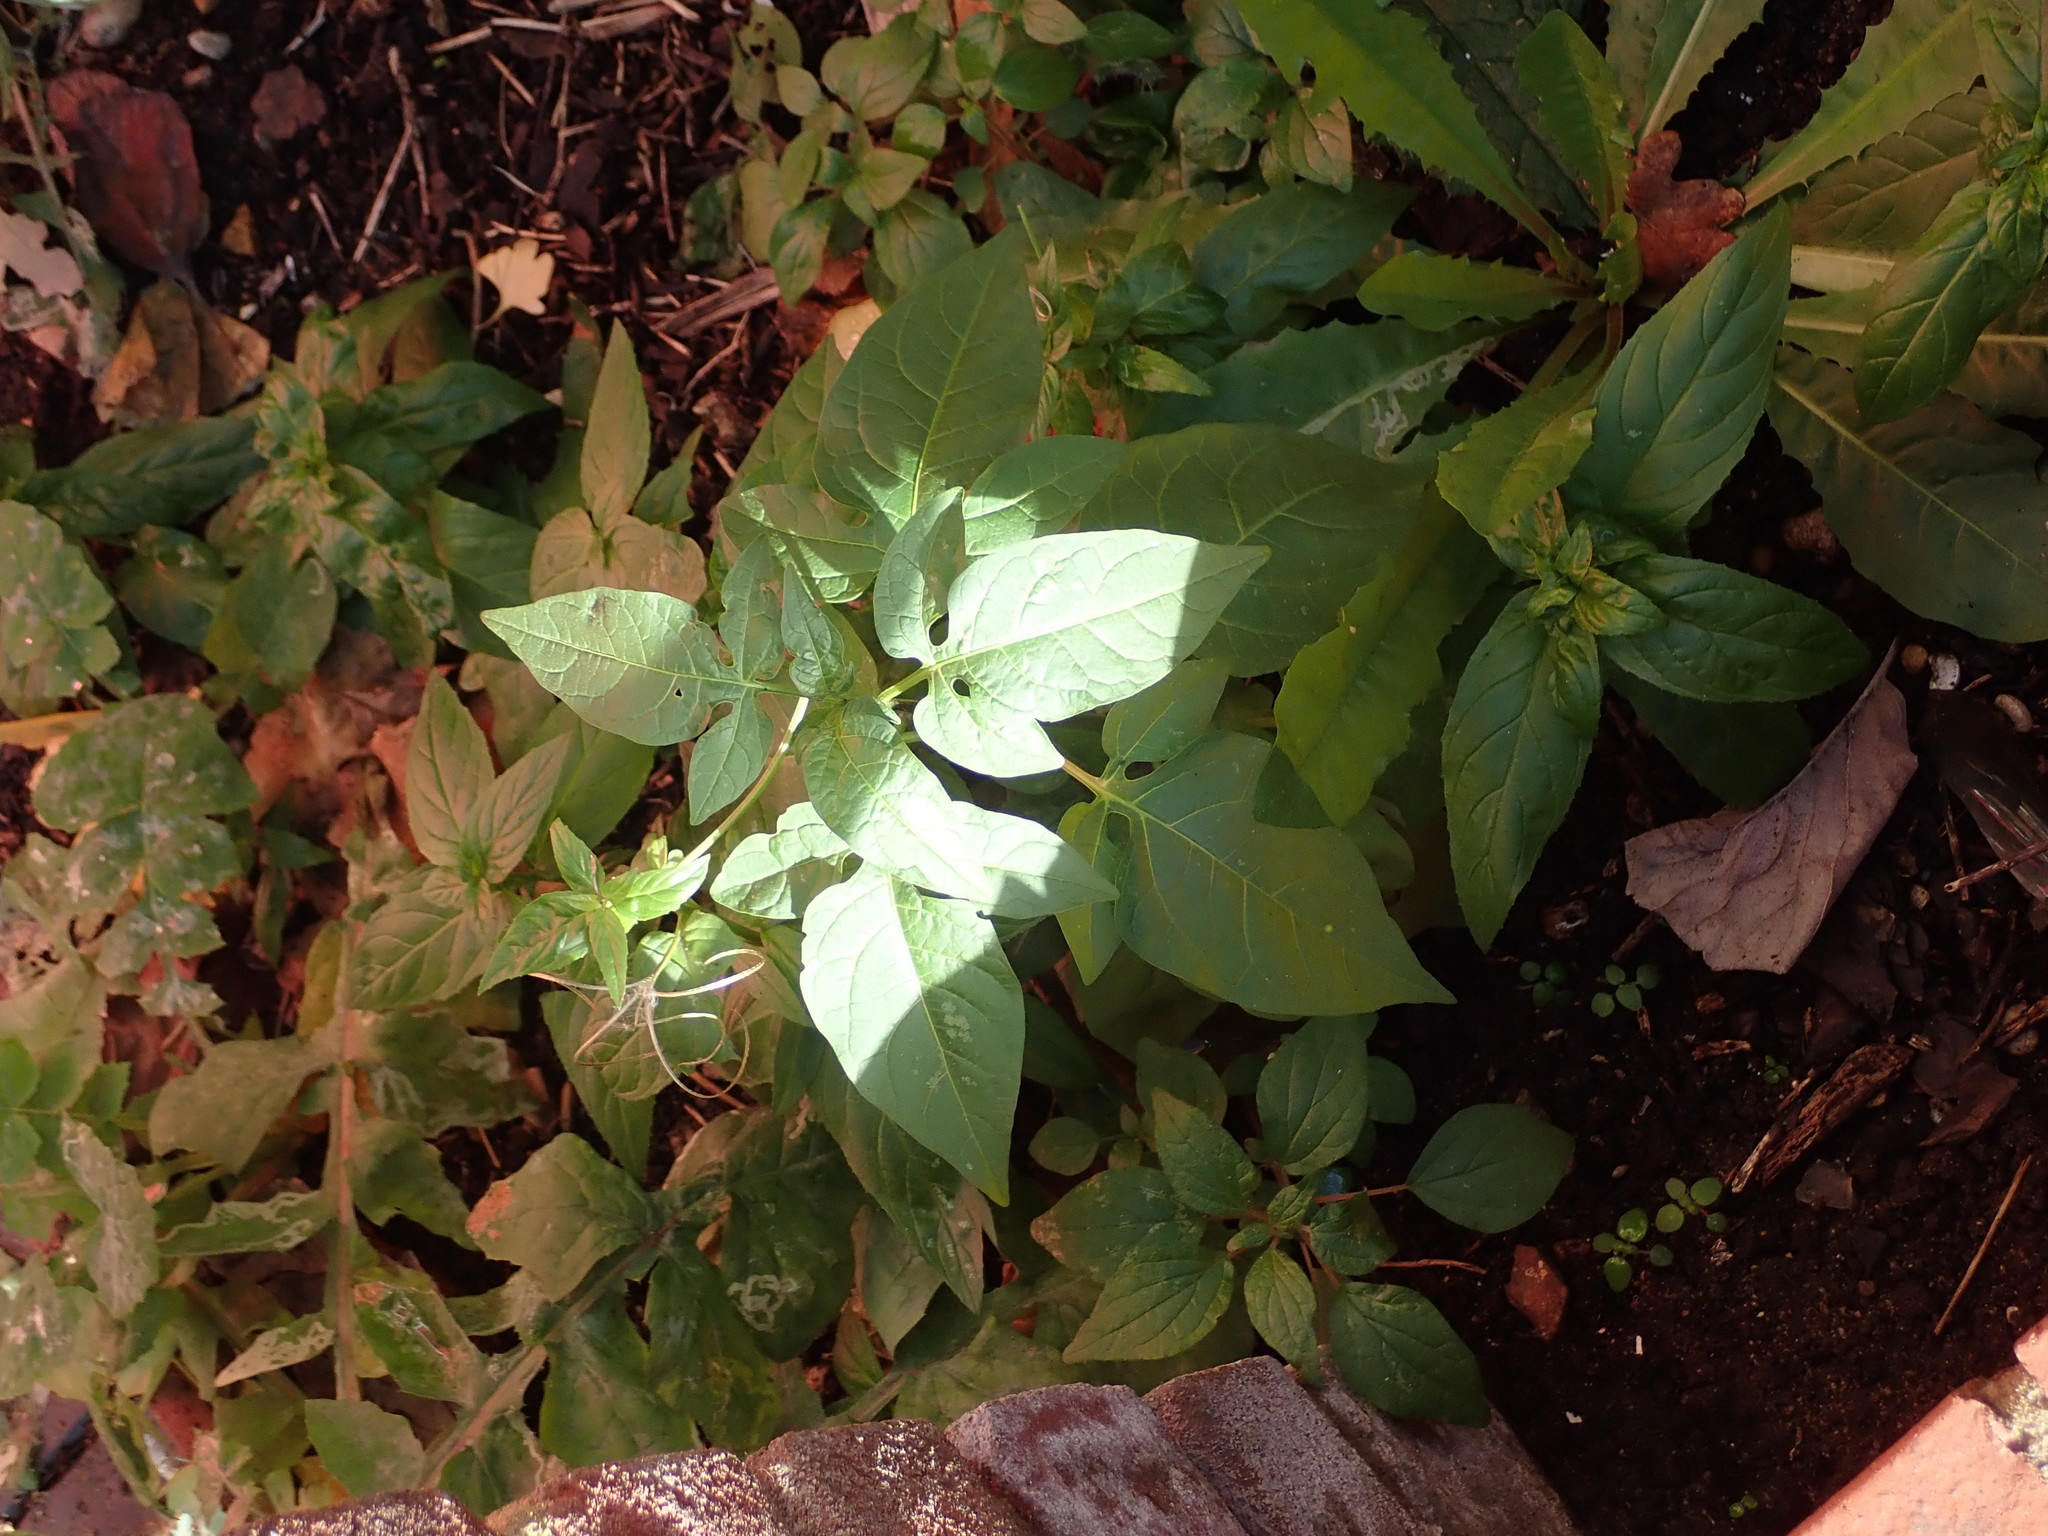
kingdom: Plantae
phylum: Tracheophyta
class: Magnoliopsida
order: Solanales
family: Solanaceae
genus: Solanum
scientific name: Solanum dulcamara
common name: Climbing nightshade
